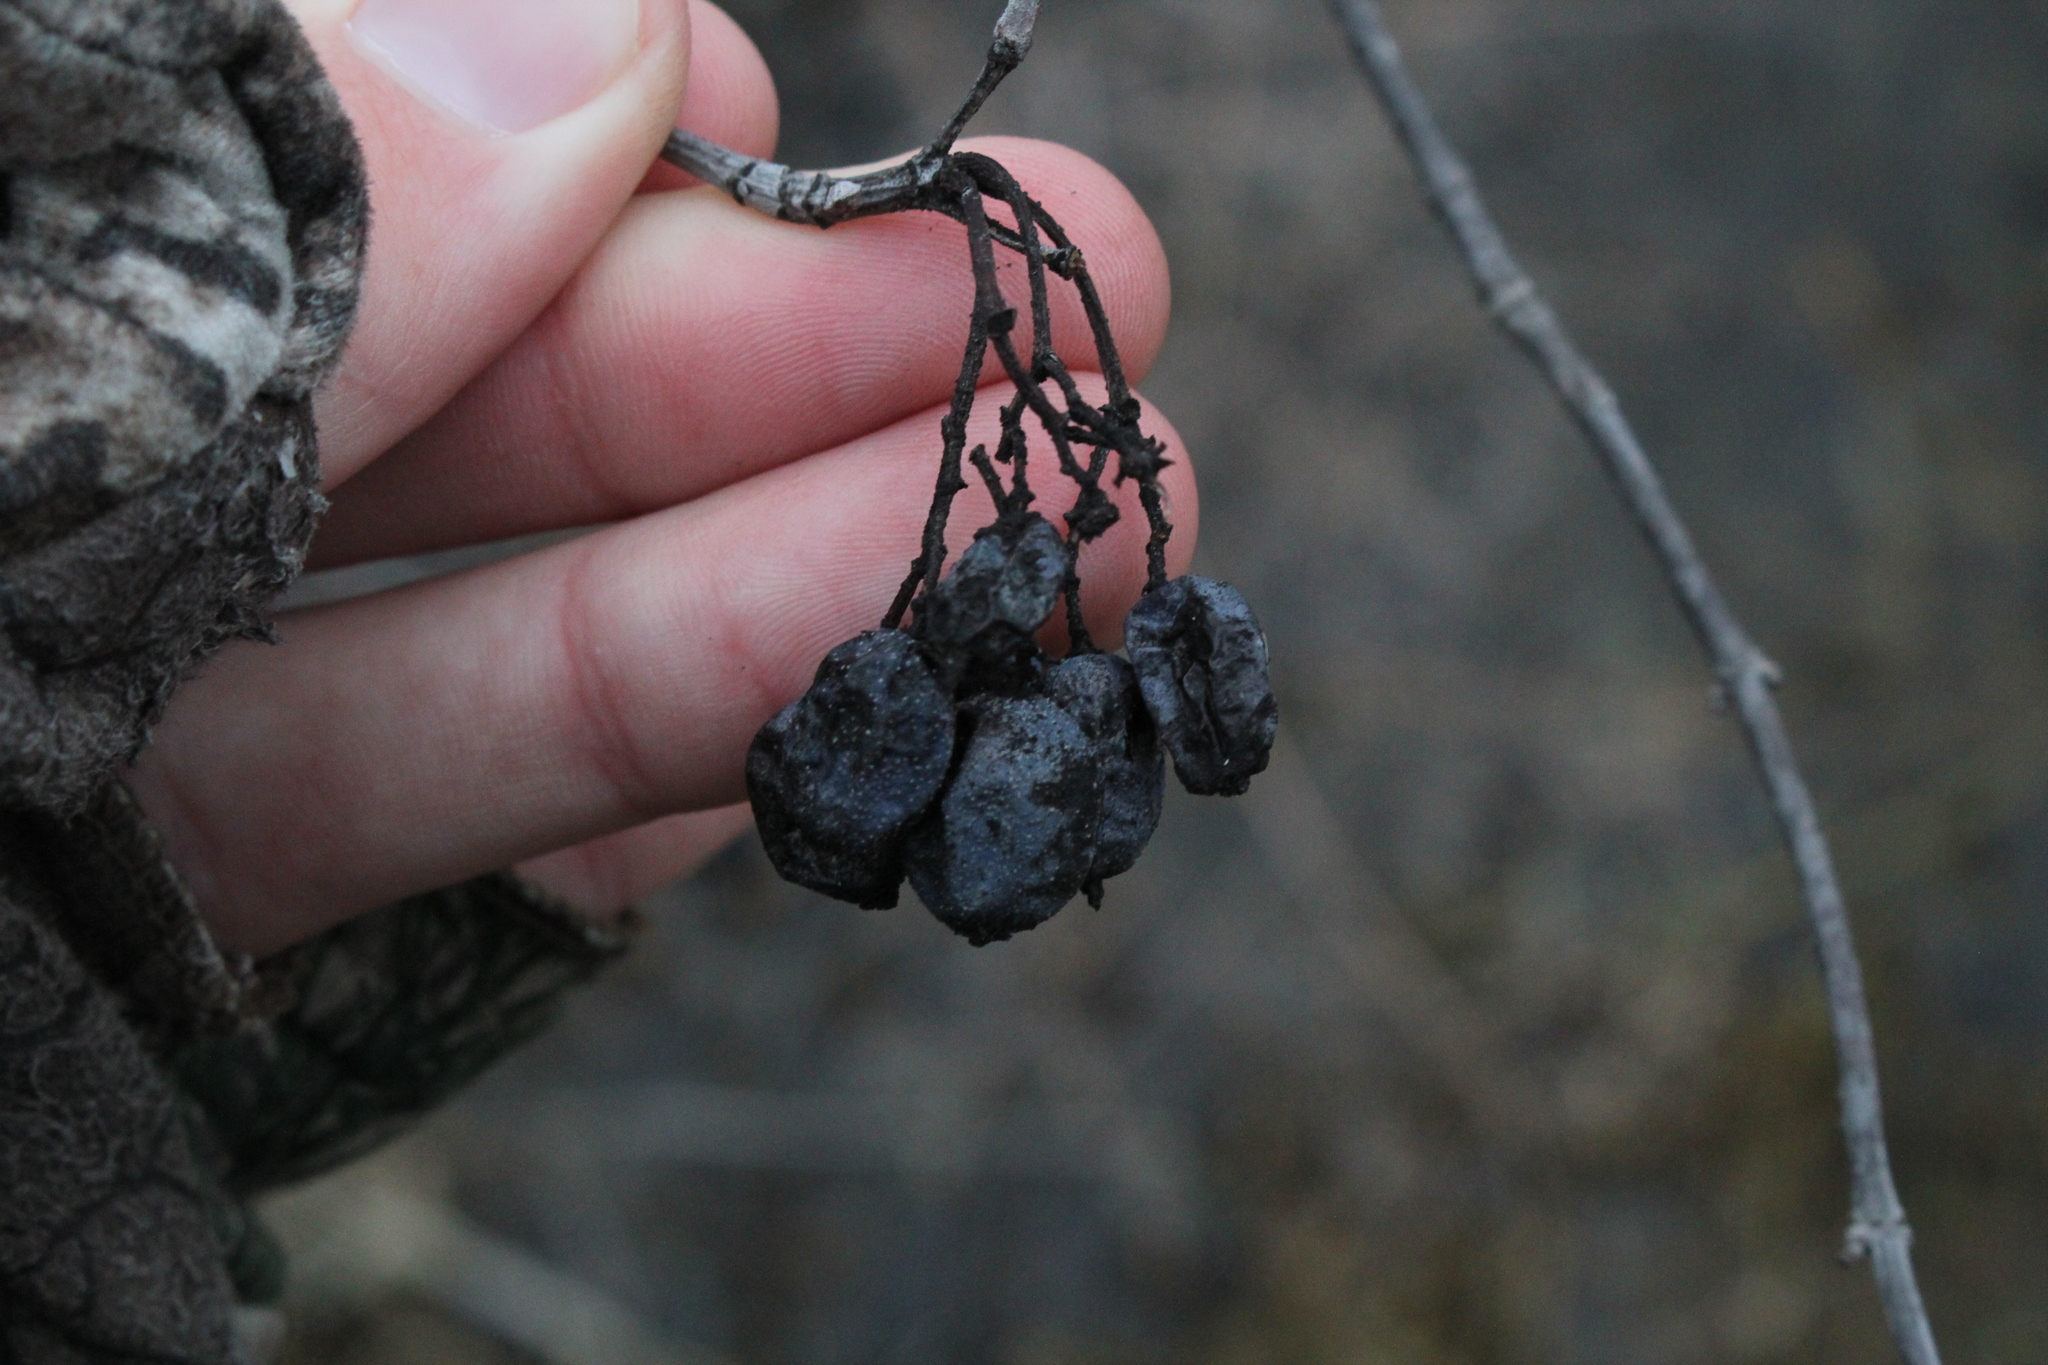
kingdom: Plantae
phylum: Tracheophyta
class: Magnoliopsida
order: Dipsacales
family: Viburnaceae
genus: Viburnum
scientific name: Viburnum lentago
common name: Black haw
